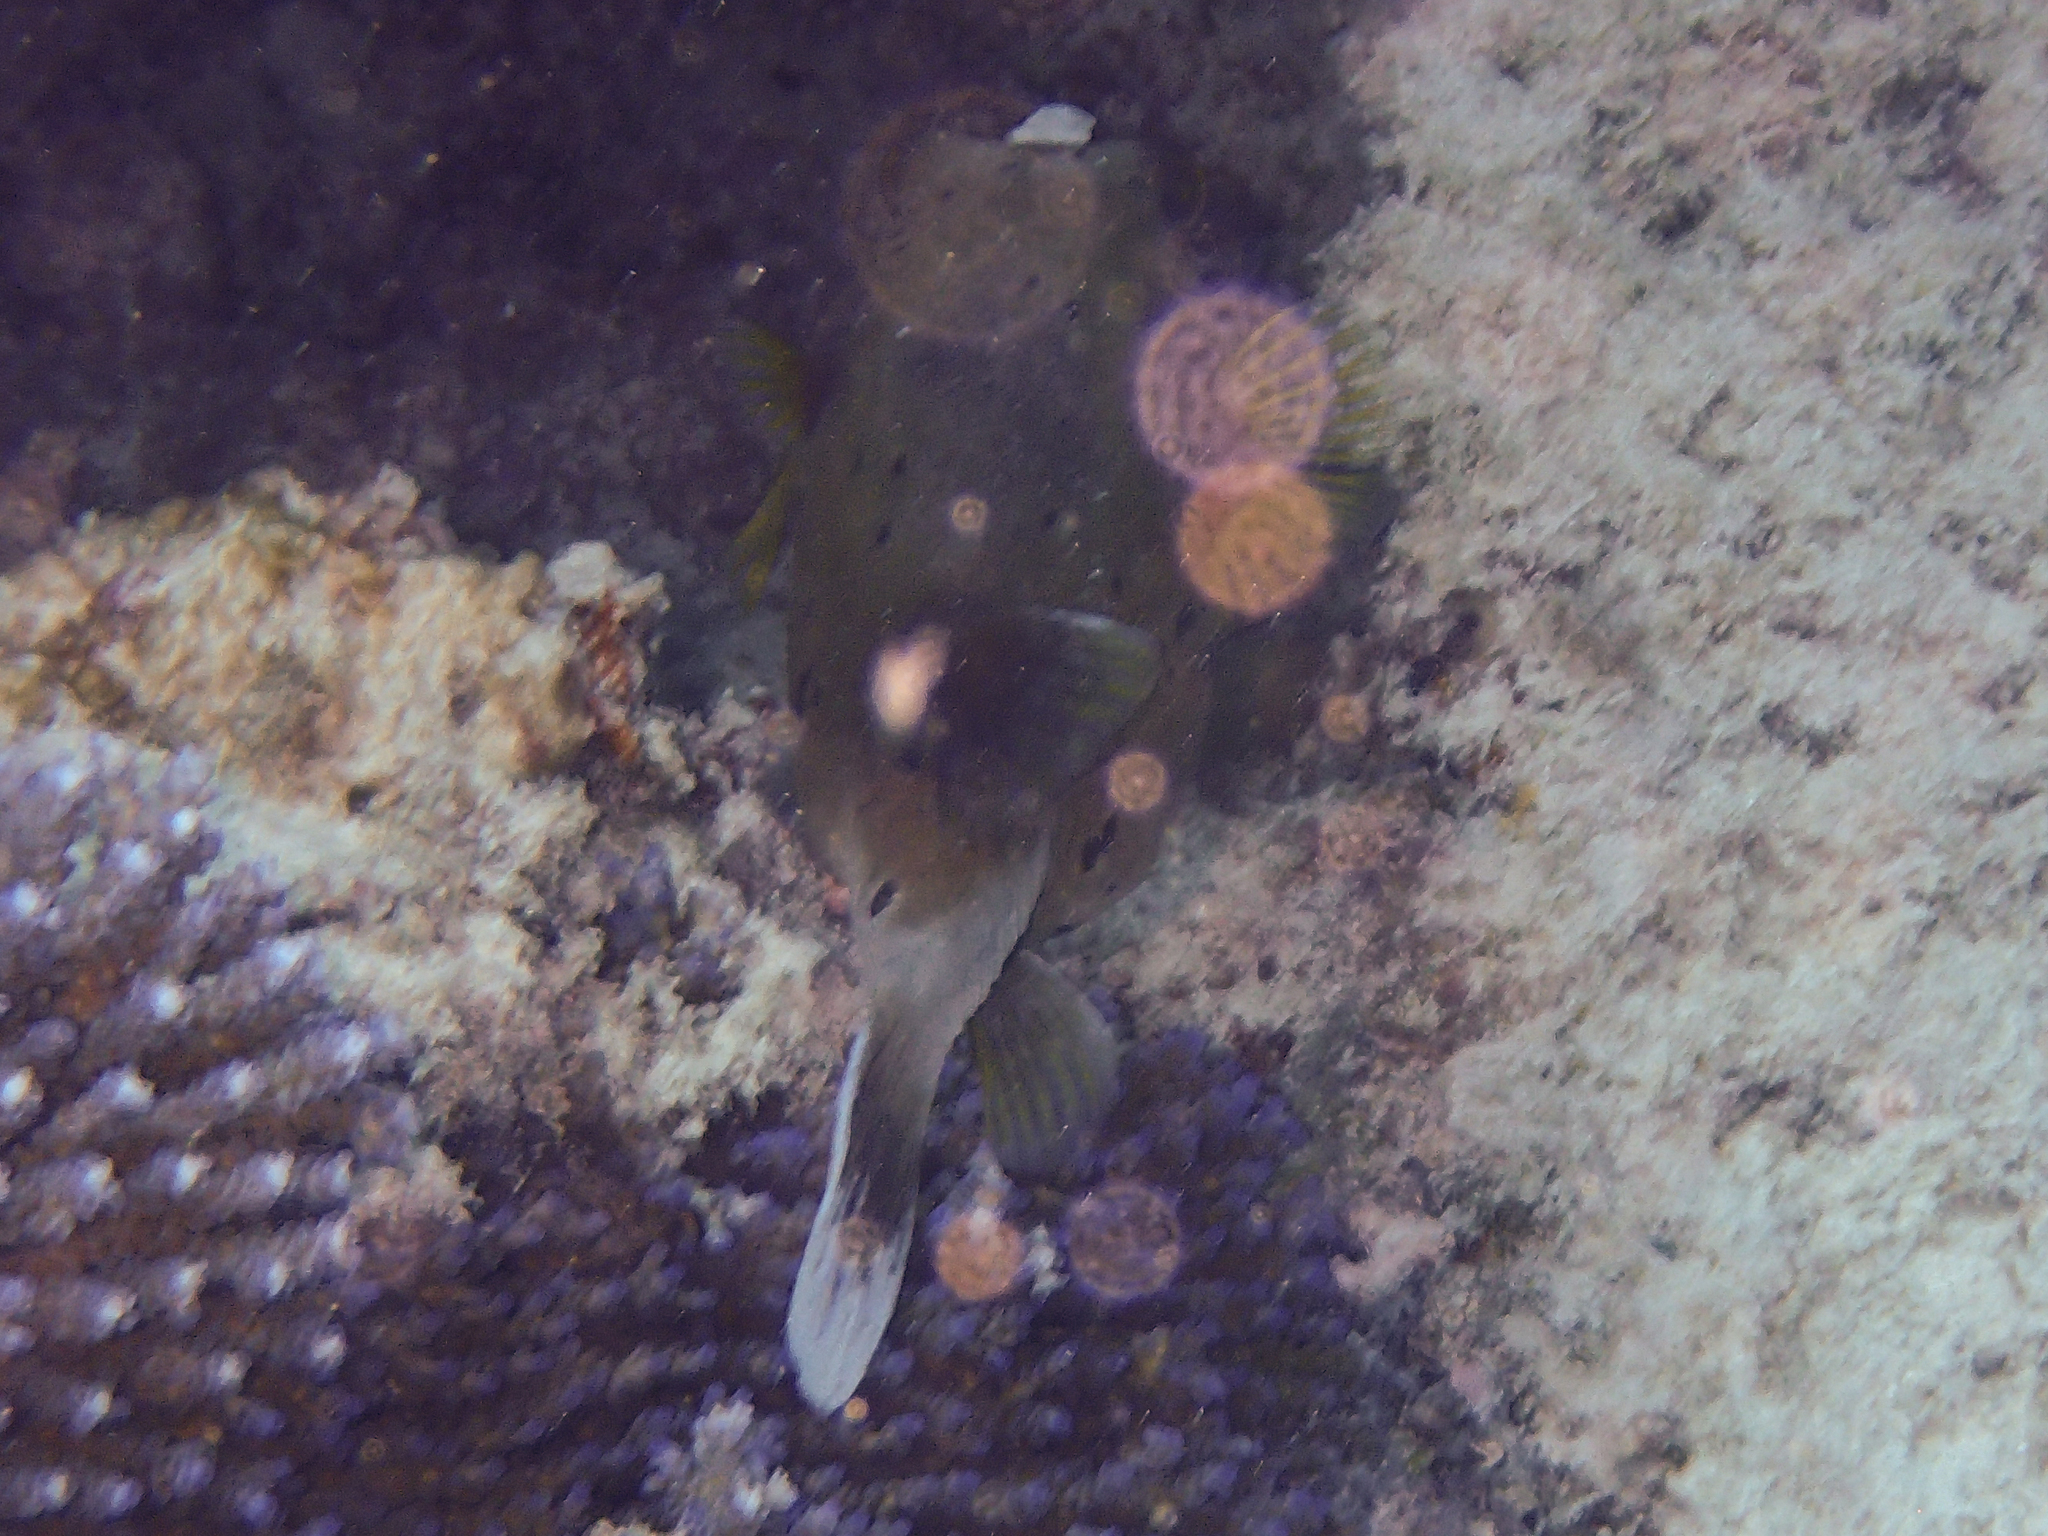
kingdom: Animalia
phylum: Chordata
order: Tetraodontiformes
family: Tetraodontidae
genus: Arothron
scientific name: Arothron nigropunctatus
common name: Black spotted blow fish
